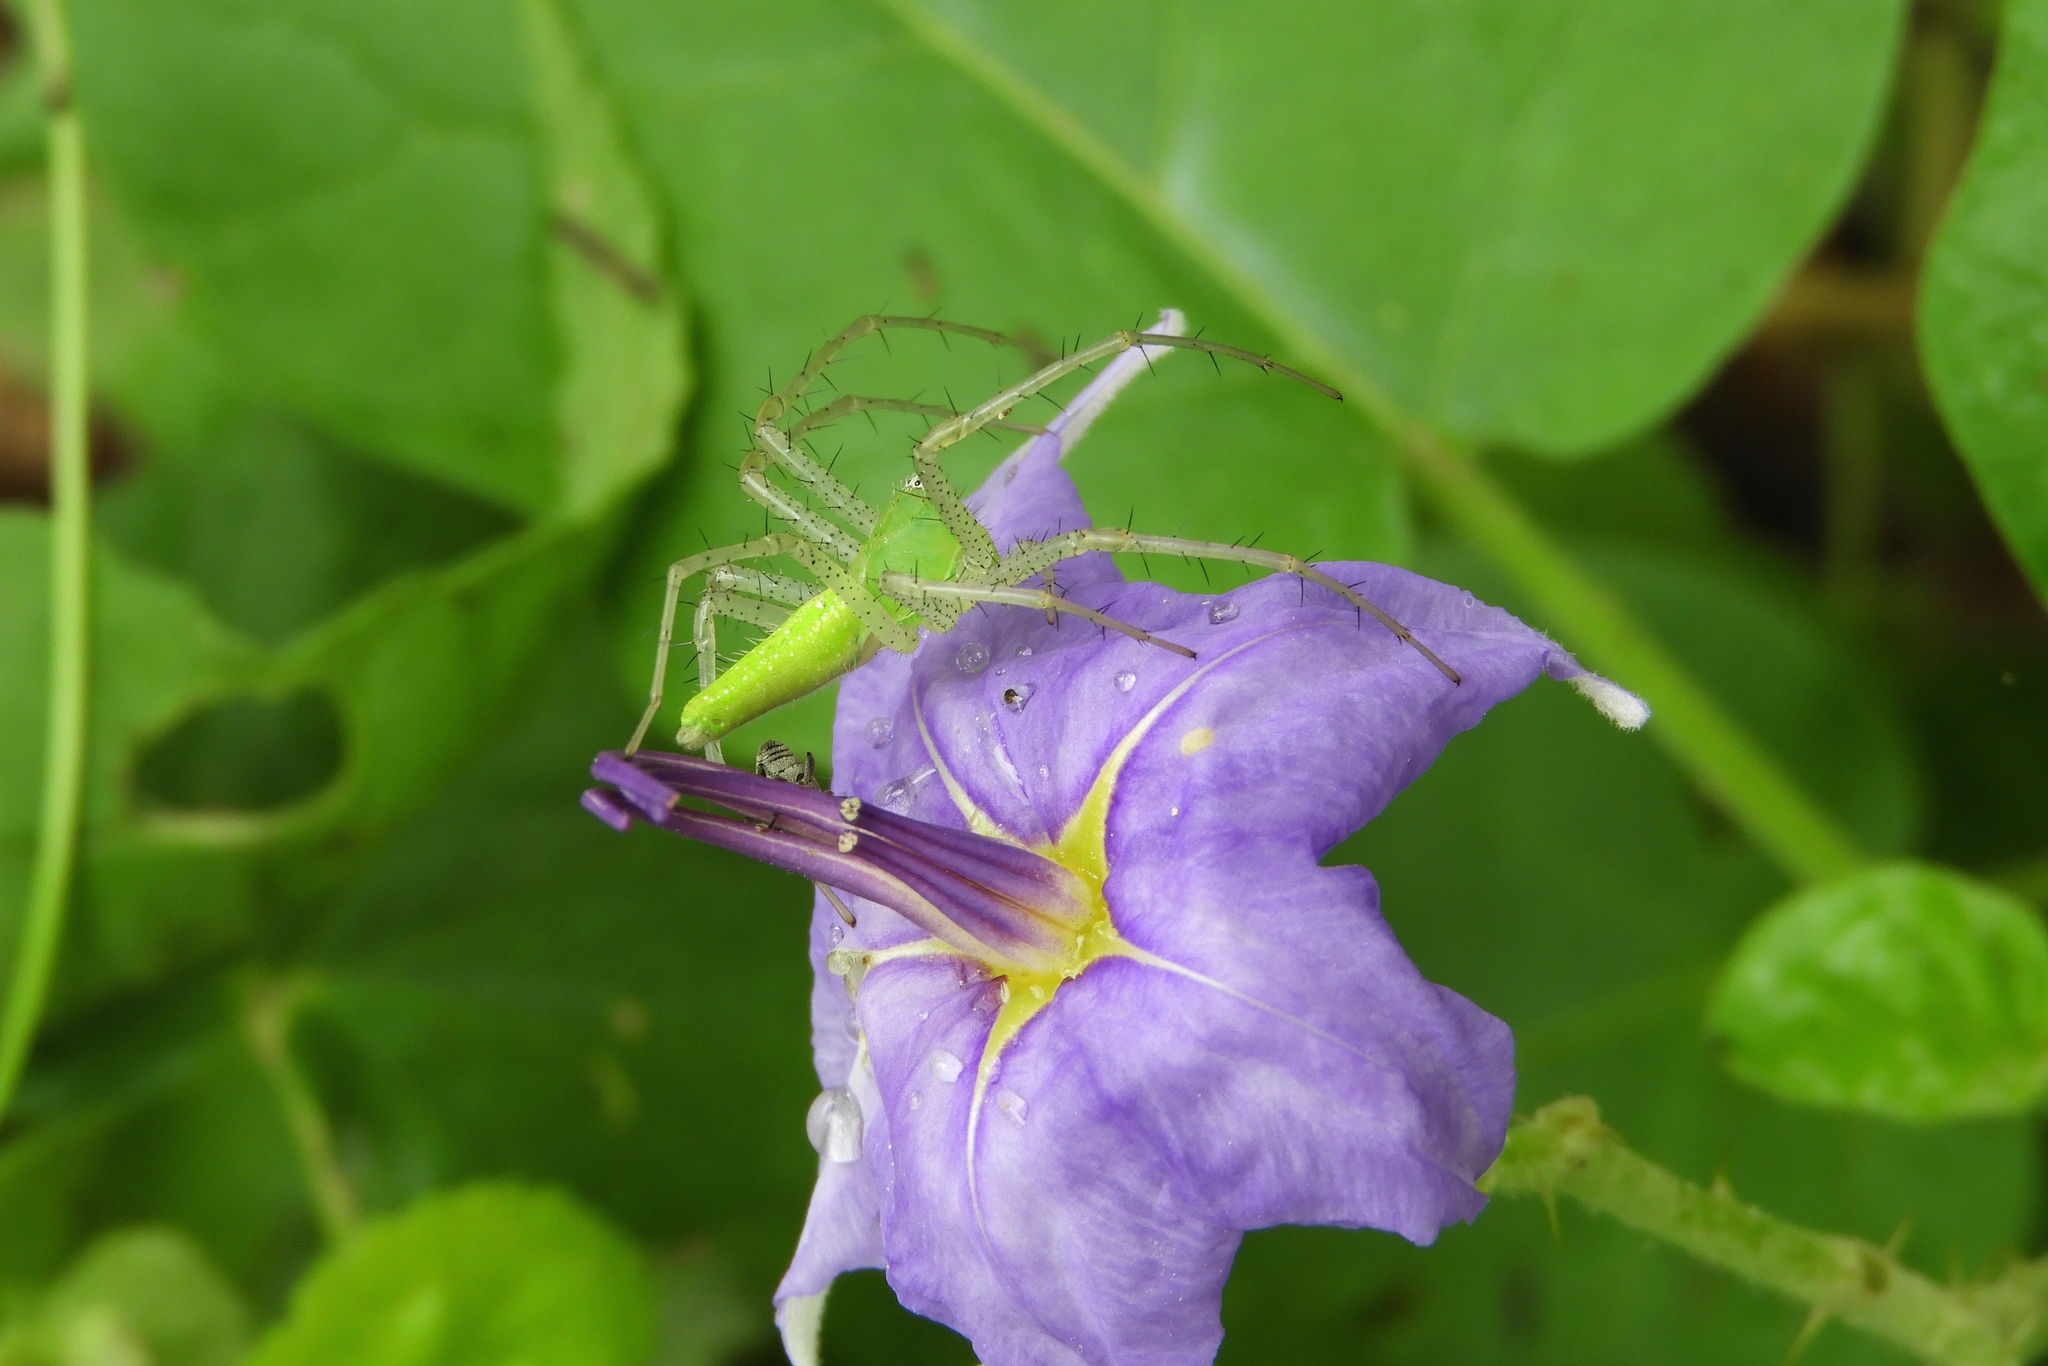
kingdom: Animalia
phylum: Arthropoda
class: Arachnida
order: Araneae
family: Oxyopidae
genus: Peucetia
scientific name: Peucetia
